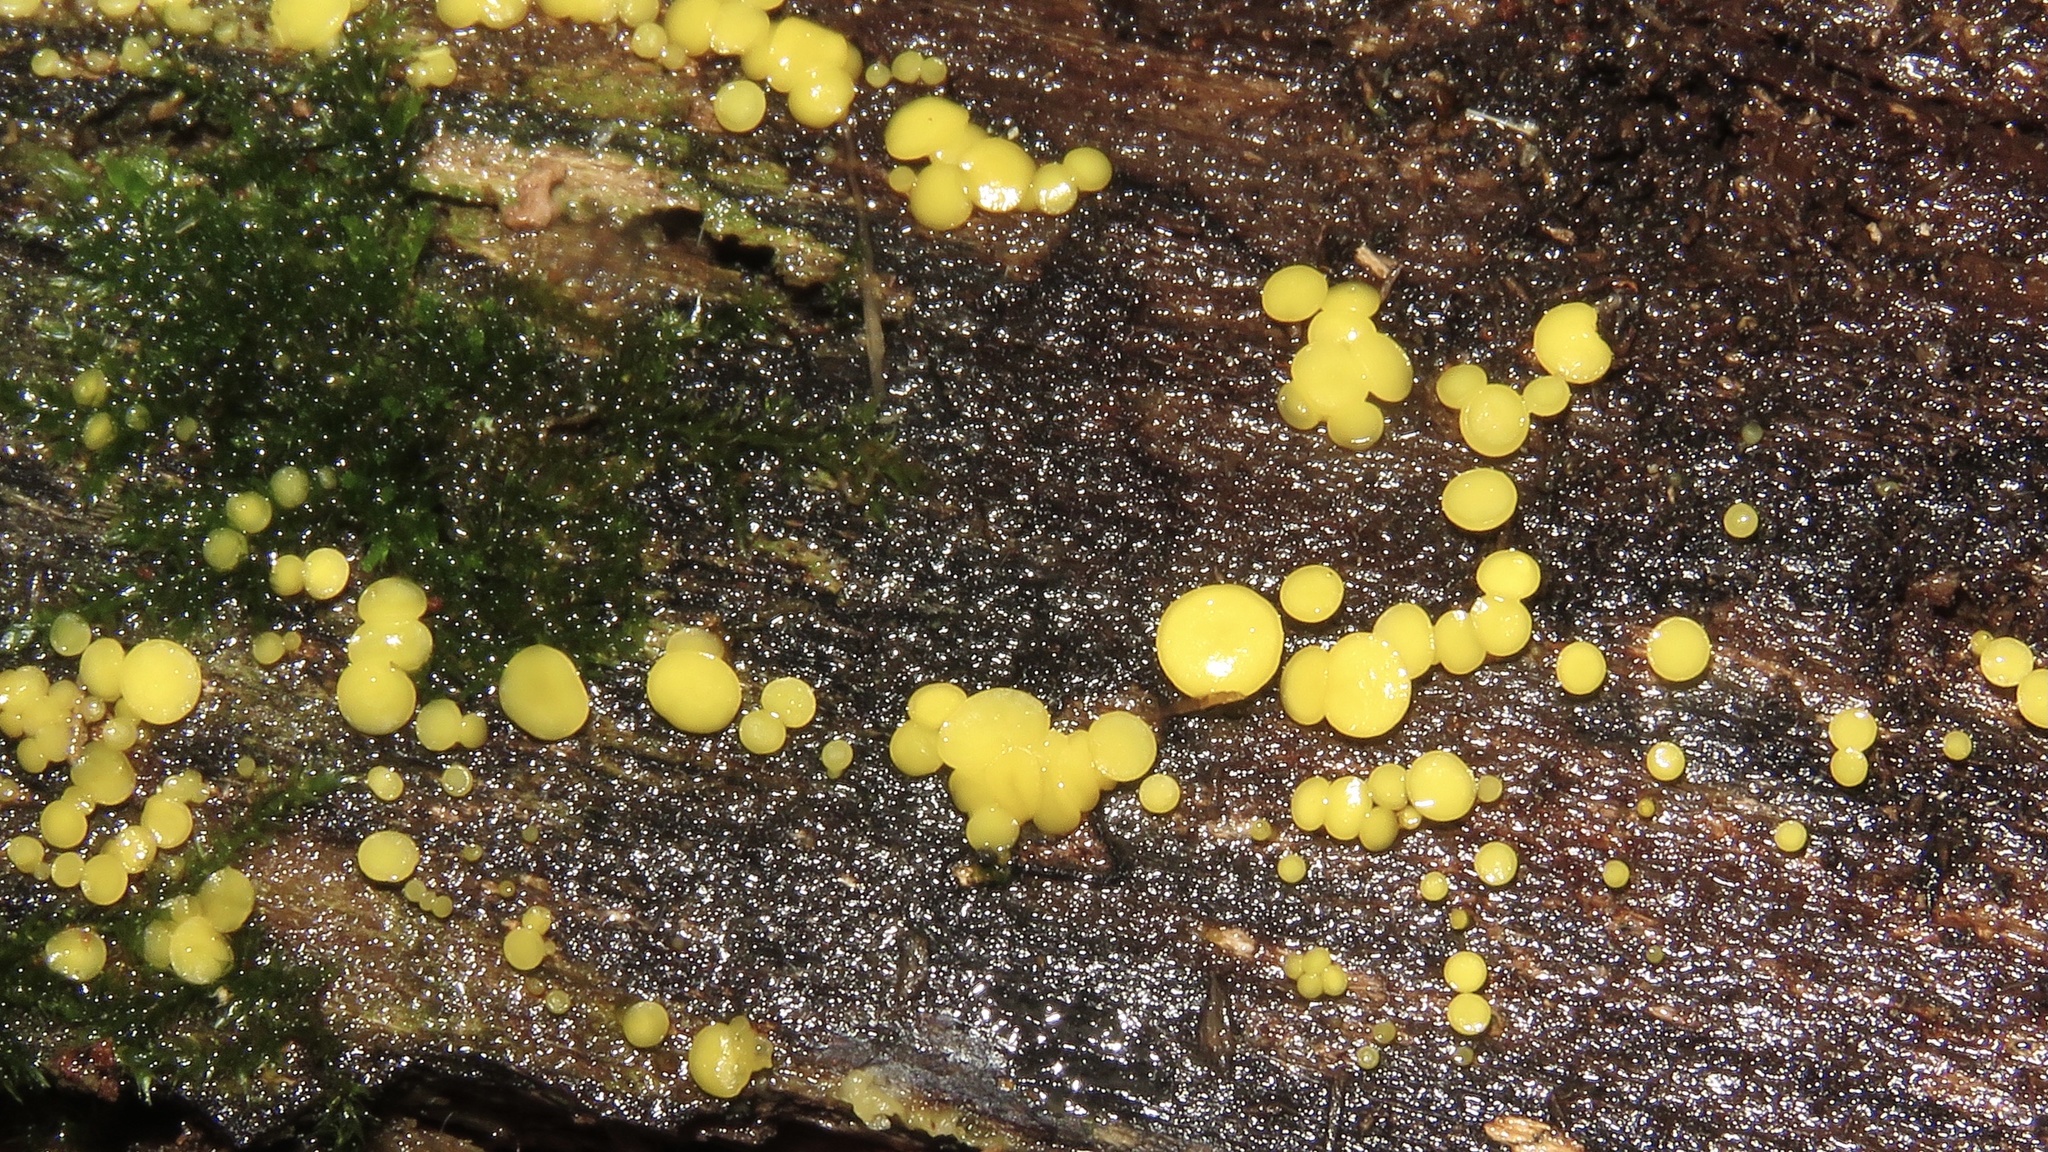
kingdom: Fungi
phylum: Ascomycota
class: Leotiomycetes
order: Helotiales
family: Pezizellaceae
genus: Calycina
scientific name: Calycina citrina
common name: Yellow fairy cups
